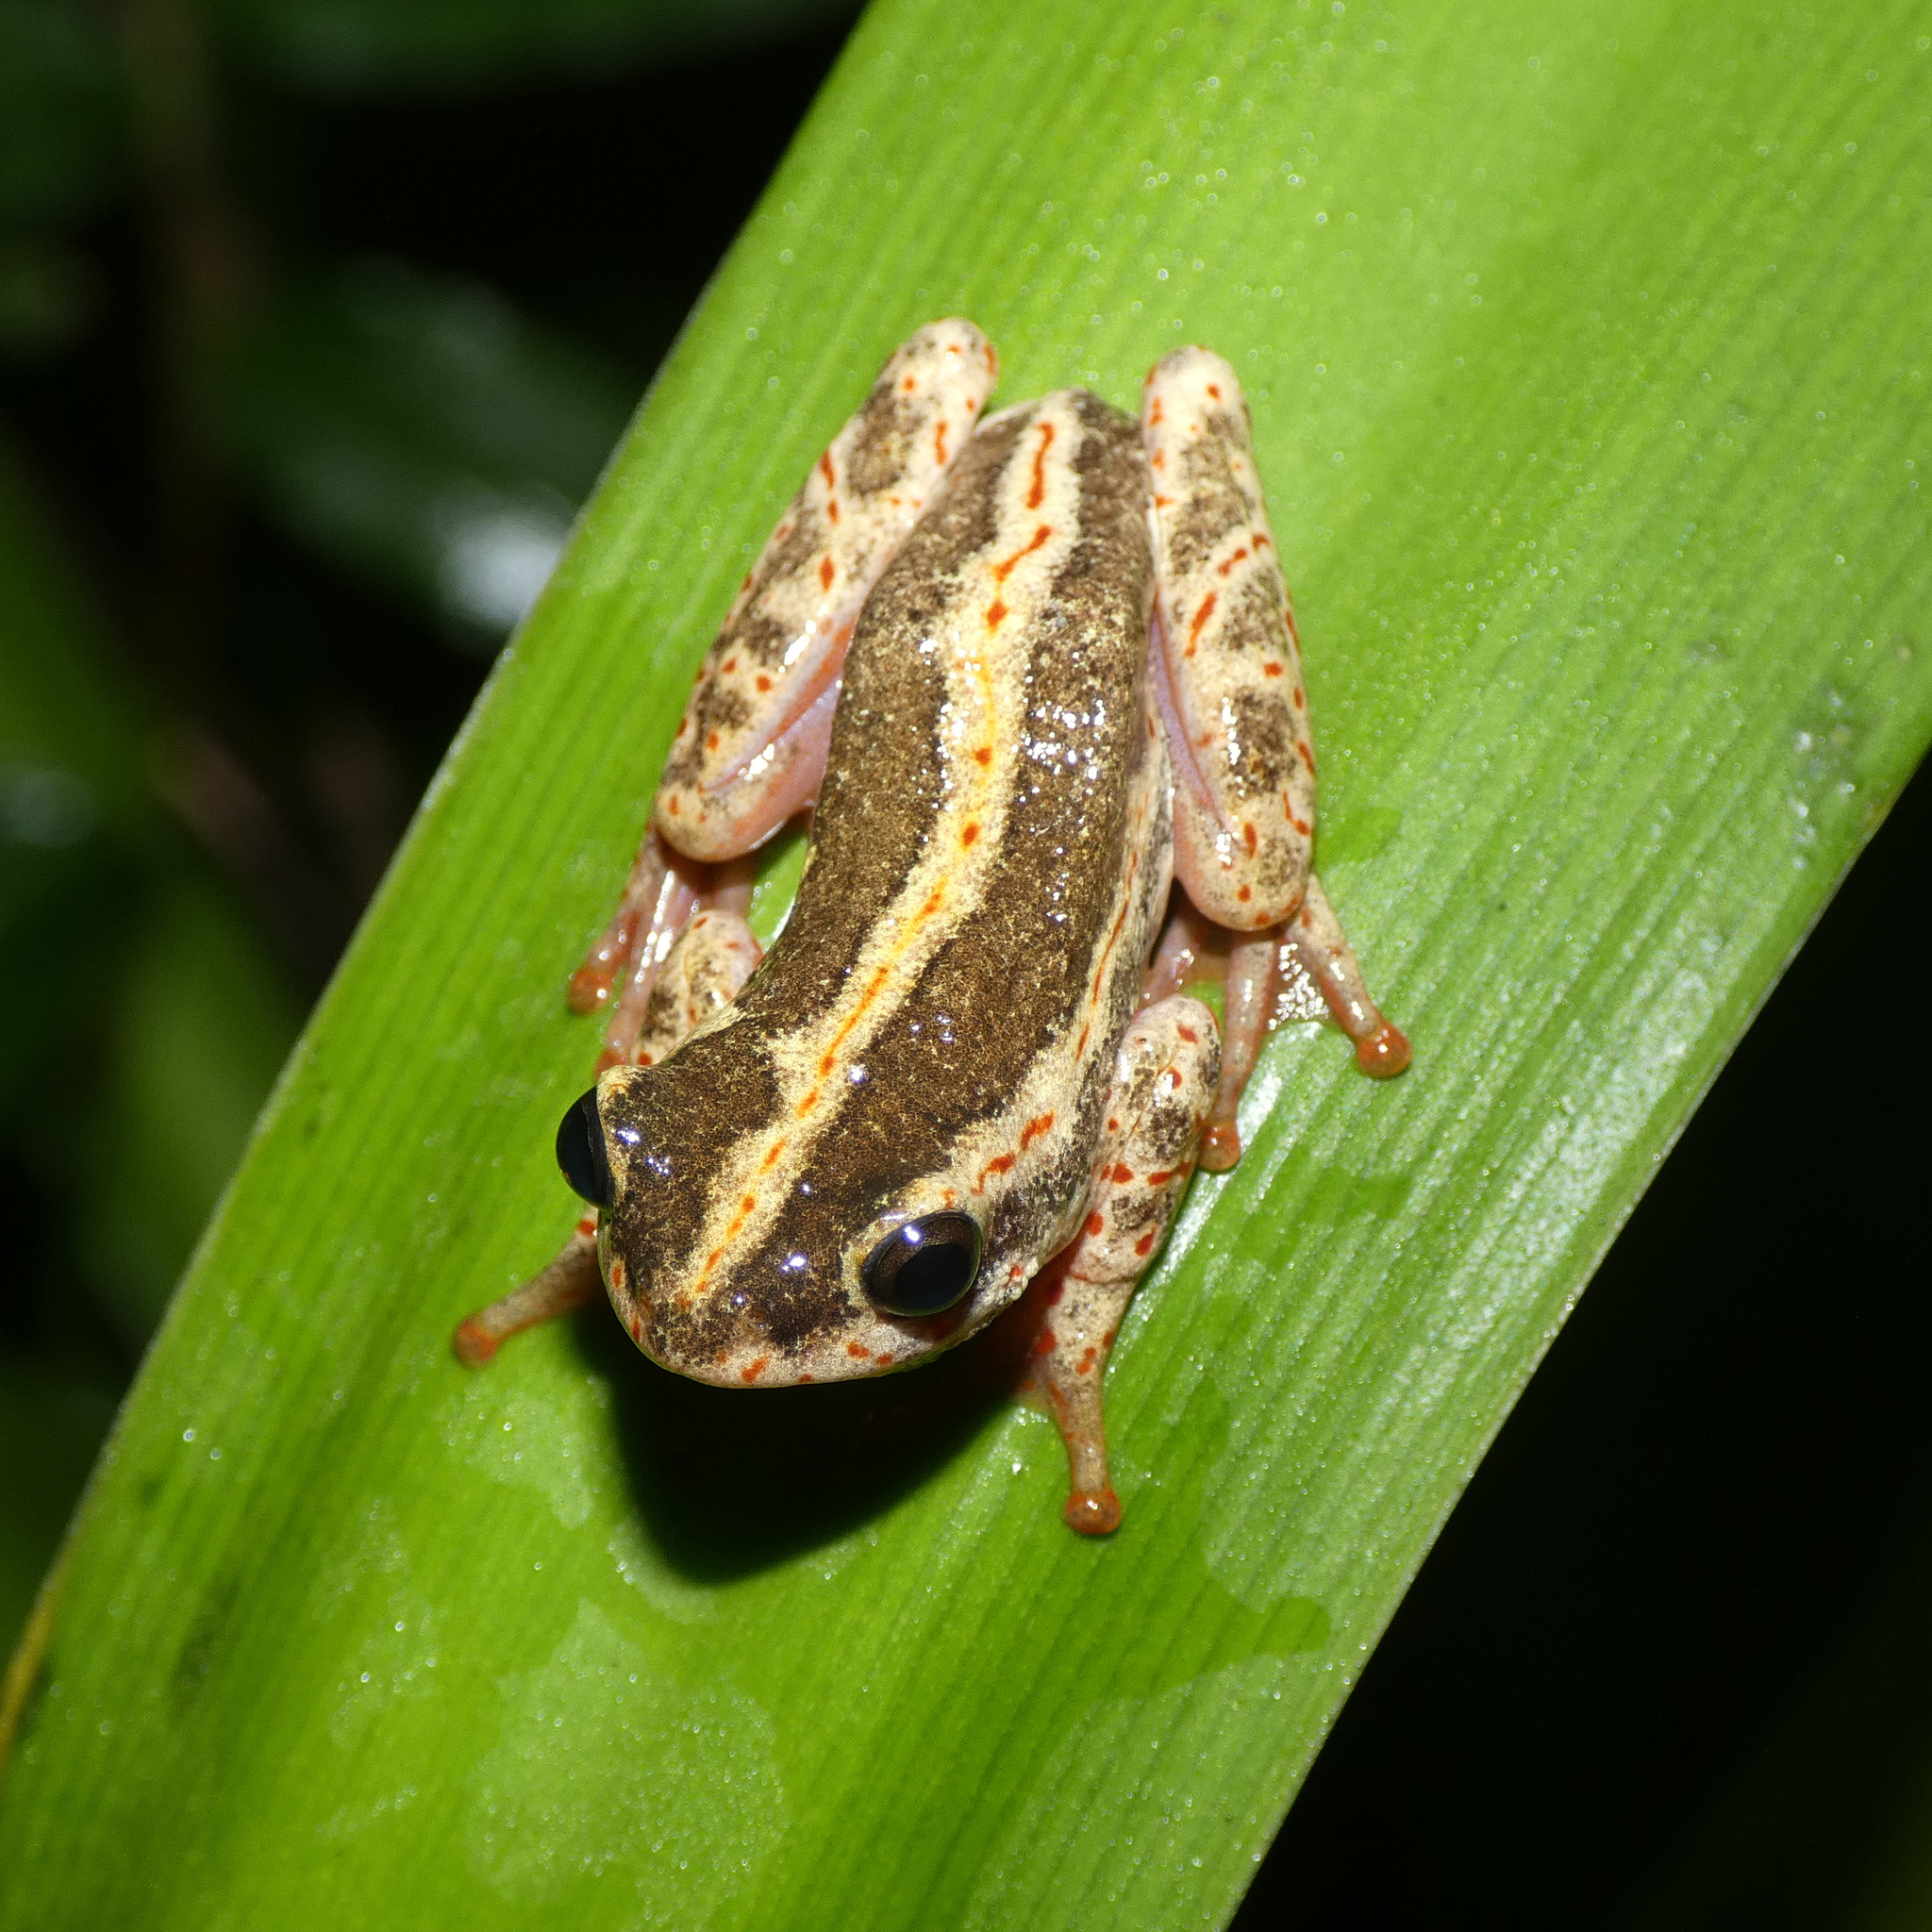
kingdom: Animalia
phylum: Chordata
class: Amphibia
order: Anura
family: Hyperoliidae
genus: Hyperolius
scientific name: Hyperolius marmoratus
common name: Painted reed frog
